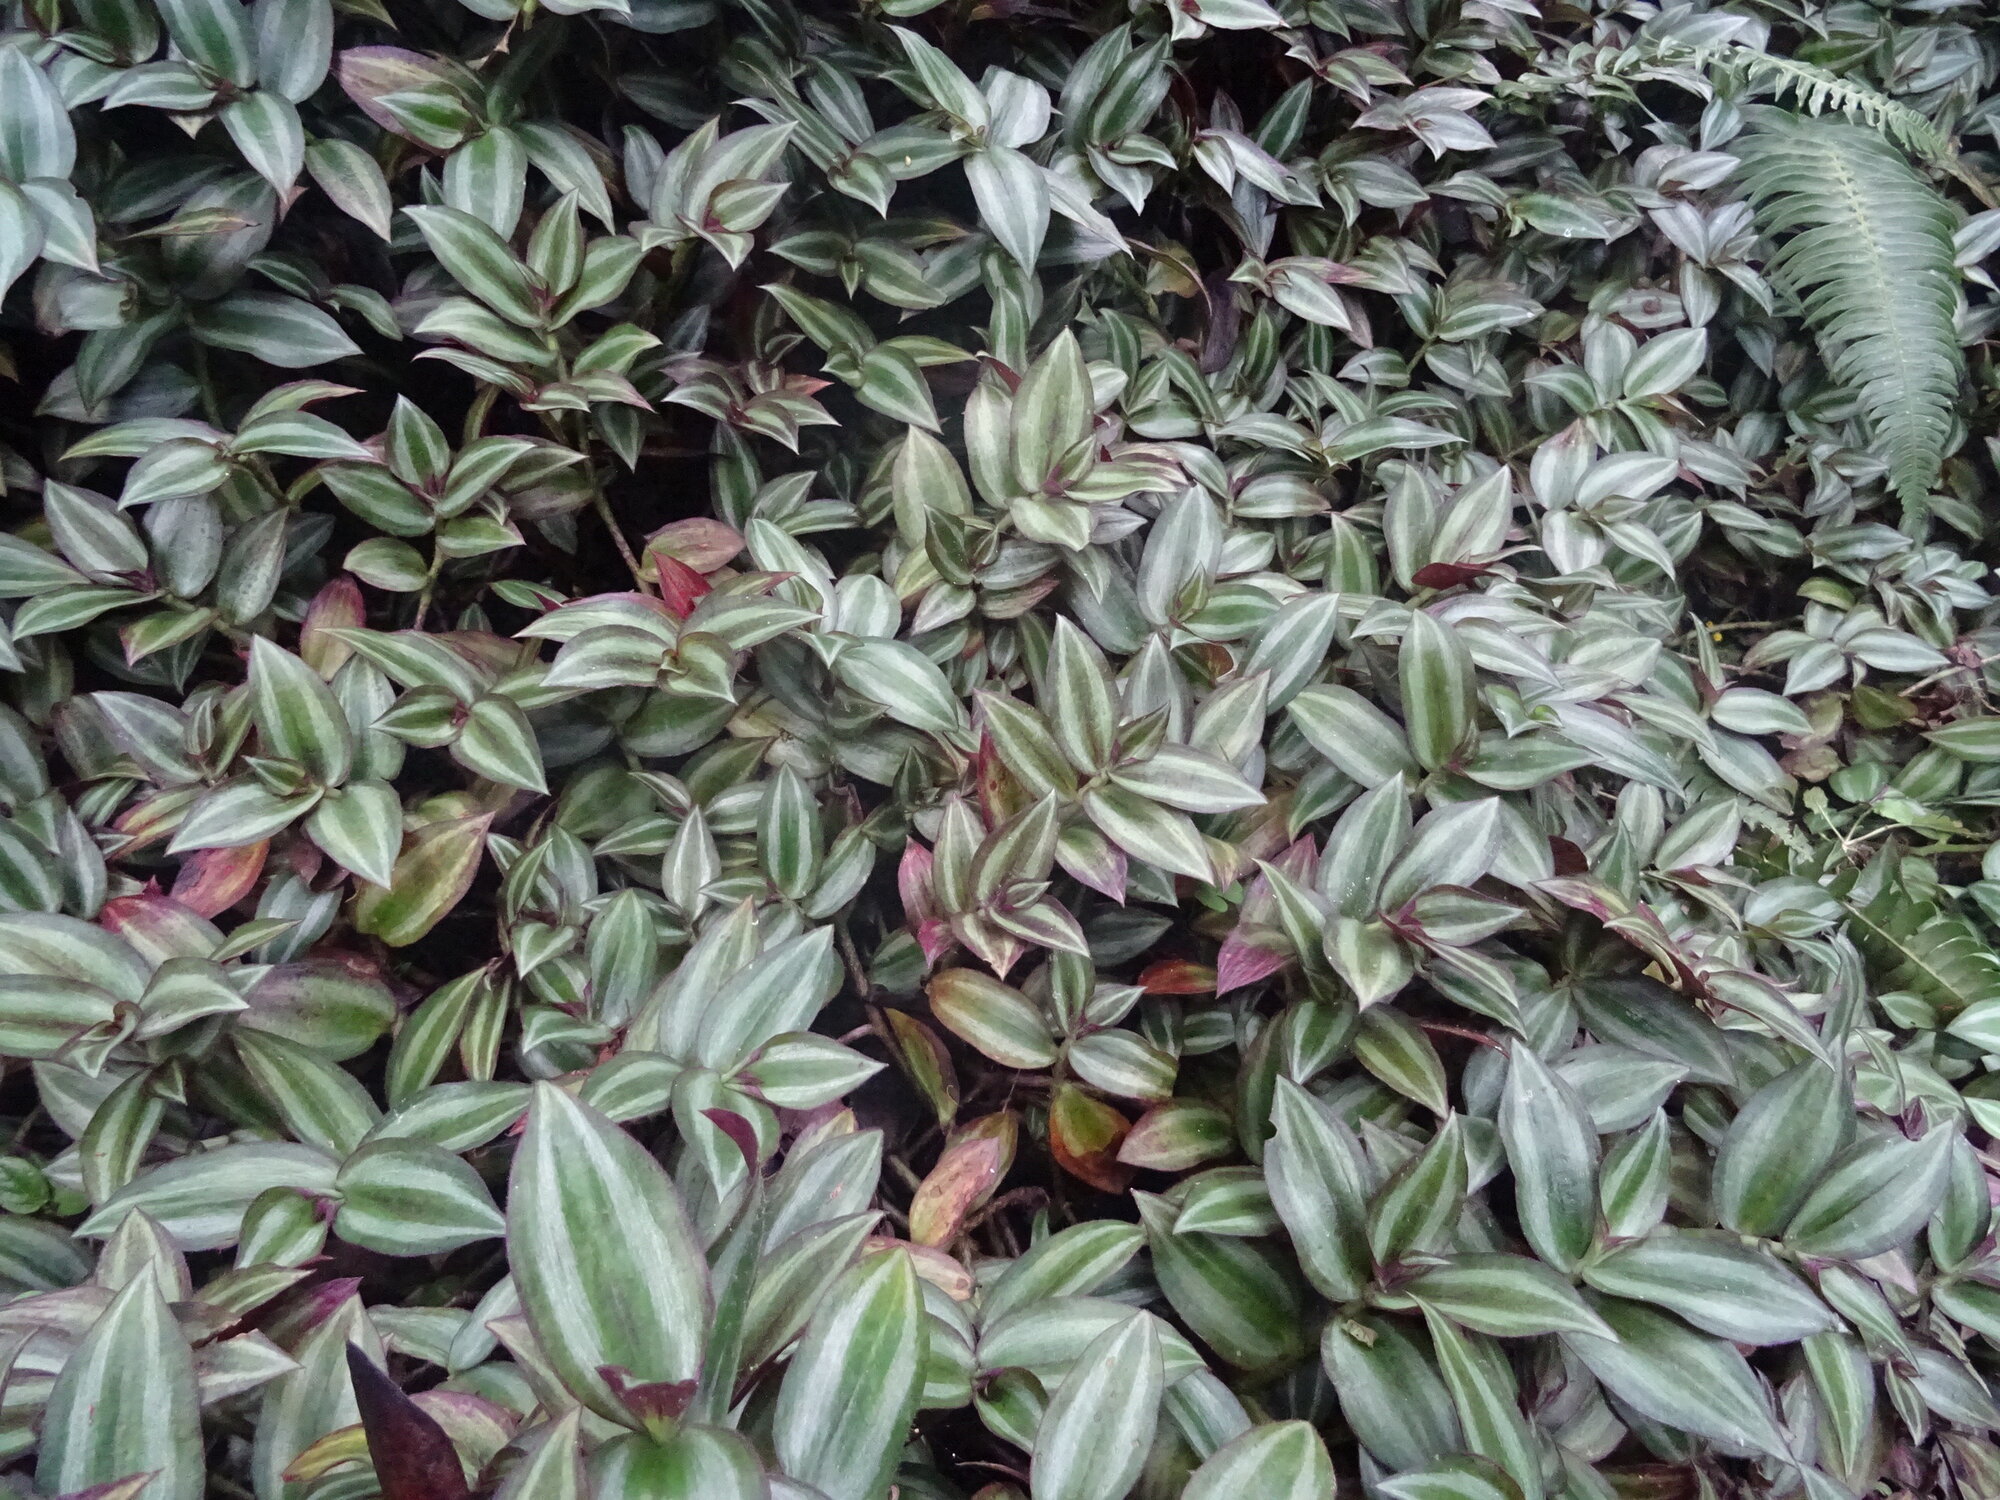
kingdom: Plantae
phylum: Tracheophyta
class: Liliopsida
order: Commelinales
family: Commelinaceae
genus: Tradescantia
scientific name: Tradescantia zebrina
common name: Inchplant
